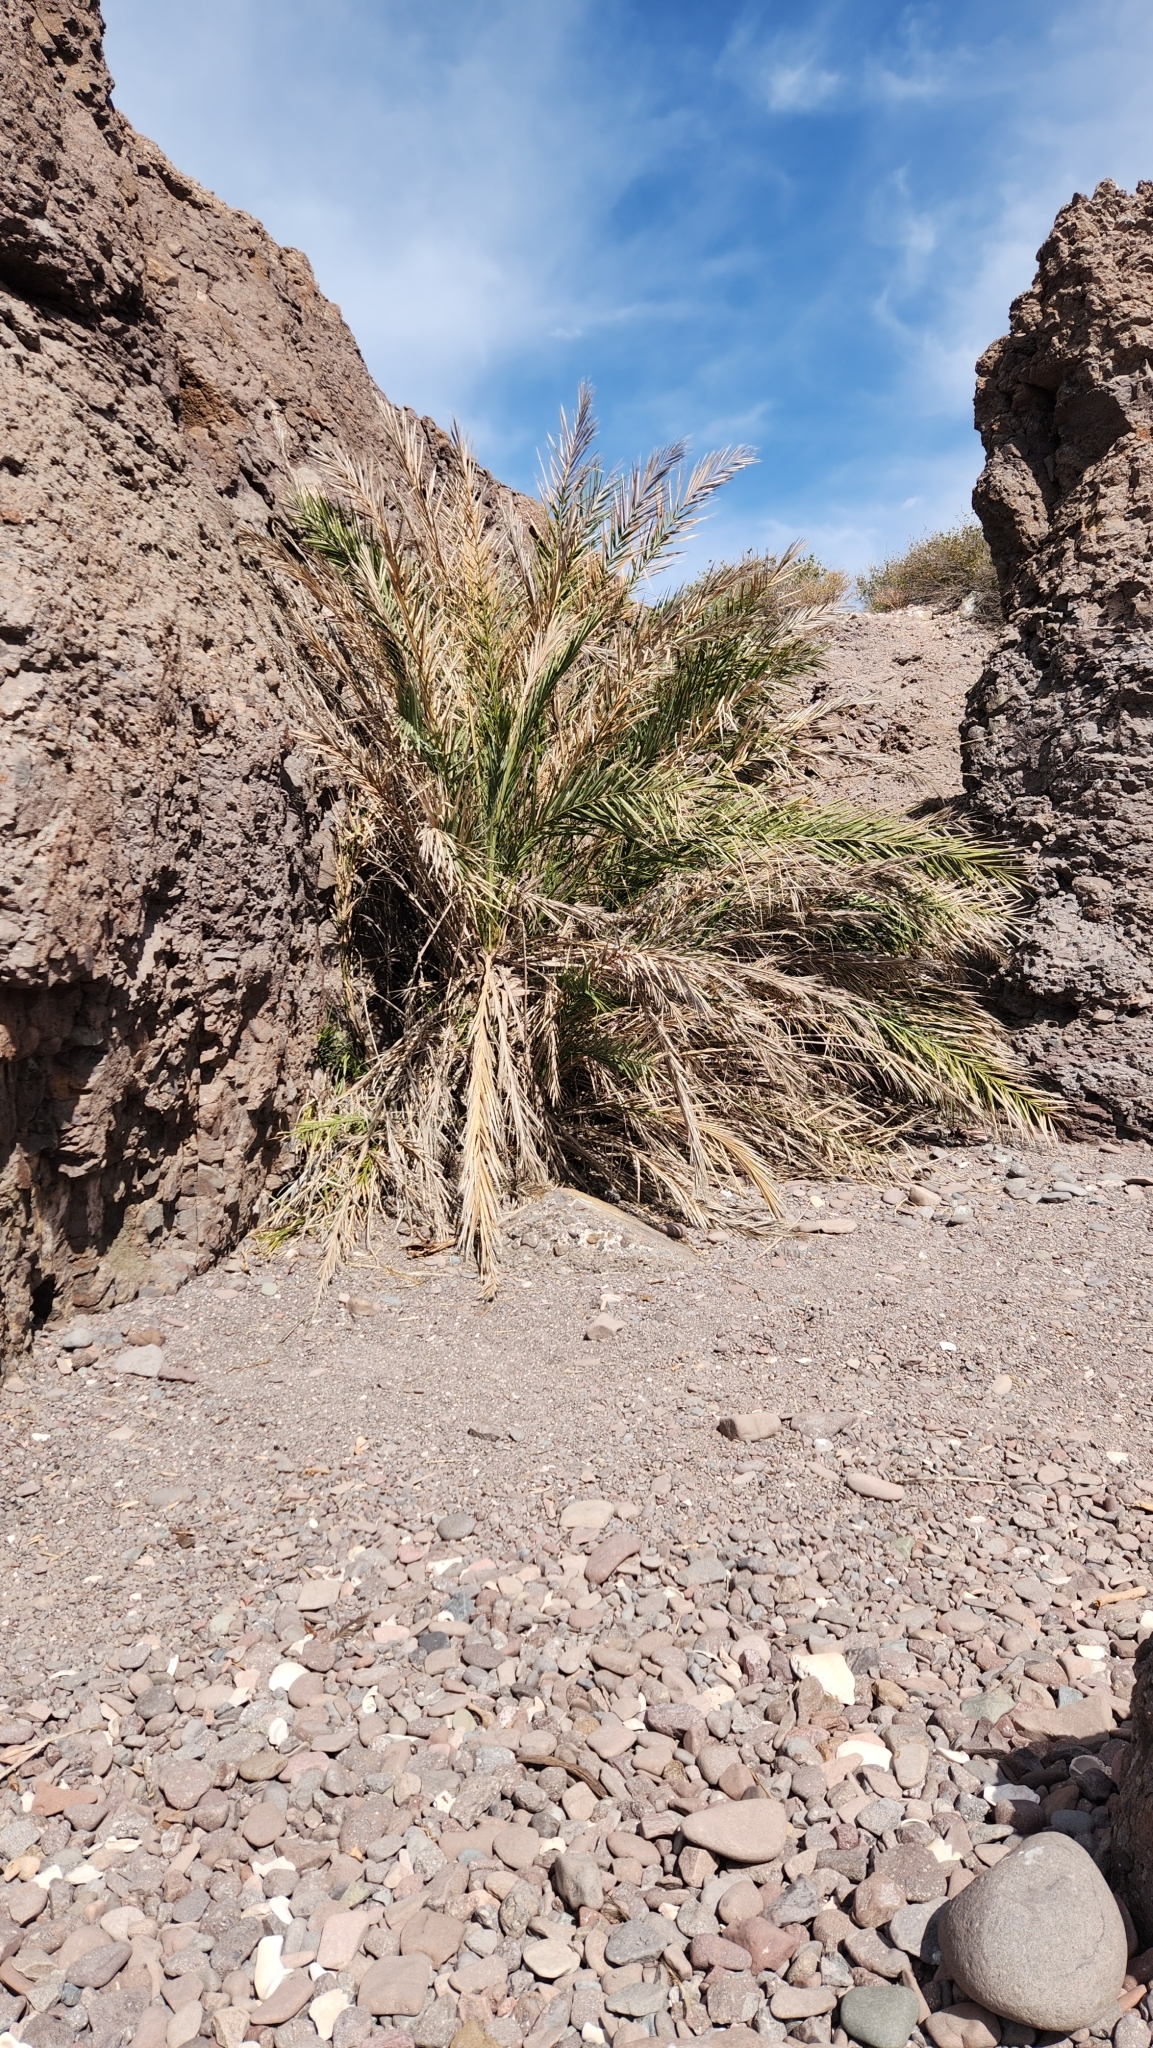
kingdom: Plantae
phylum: Tracheophyta
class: Liliopsida
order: Arecales
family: Arecaceae
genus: Phoenix
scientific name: Phoenix dactylifera
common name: Date palm
